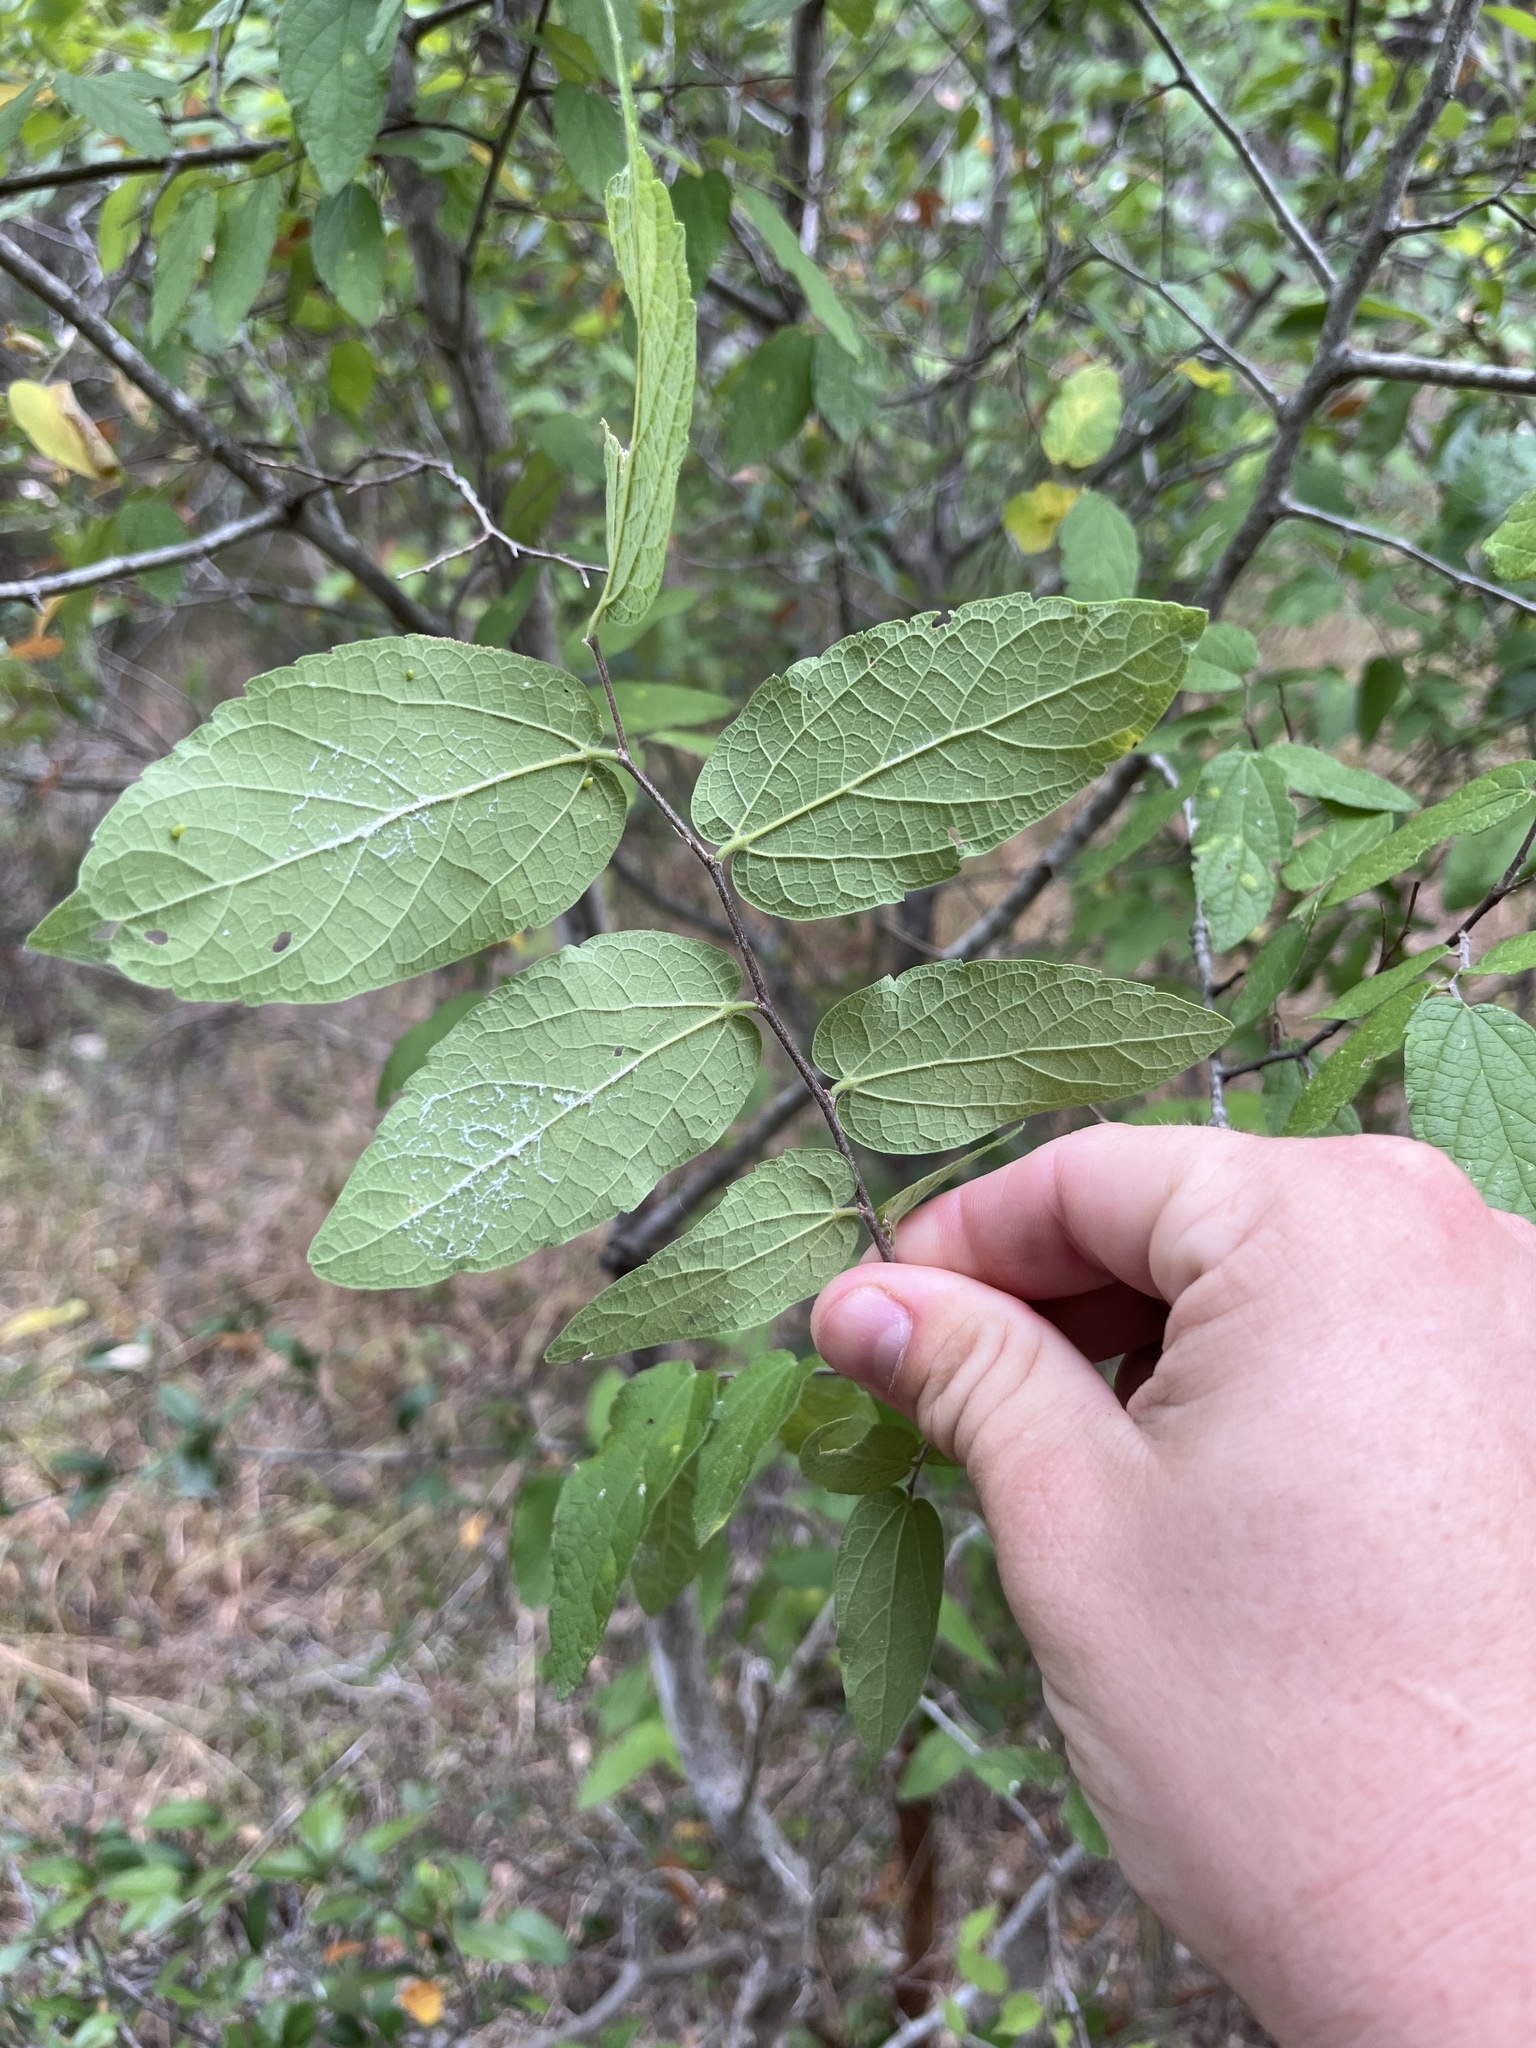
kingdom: Plantae
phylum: Tracheophyta
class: Magnoliopsida
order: Rosales
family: Cannabaceae
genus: Celtis
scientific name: Celtis reticulata
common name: Netleaf hackberry
